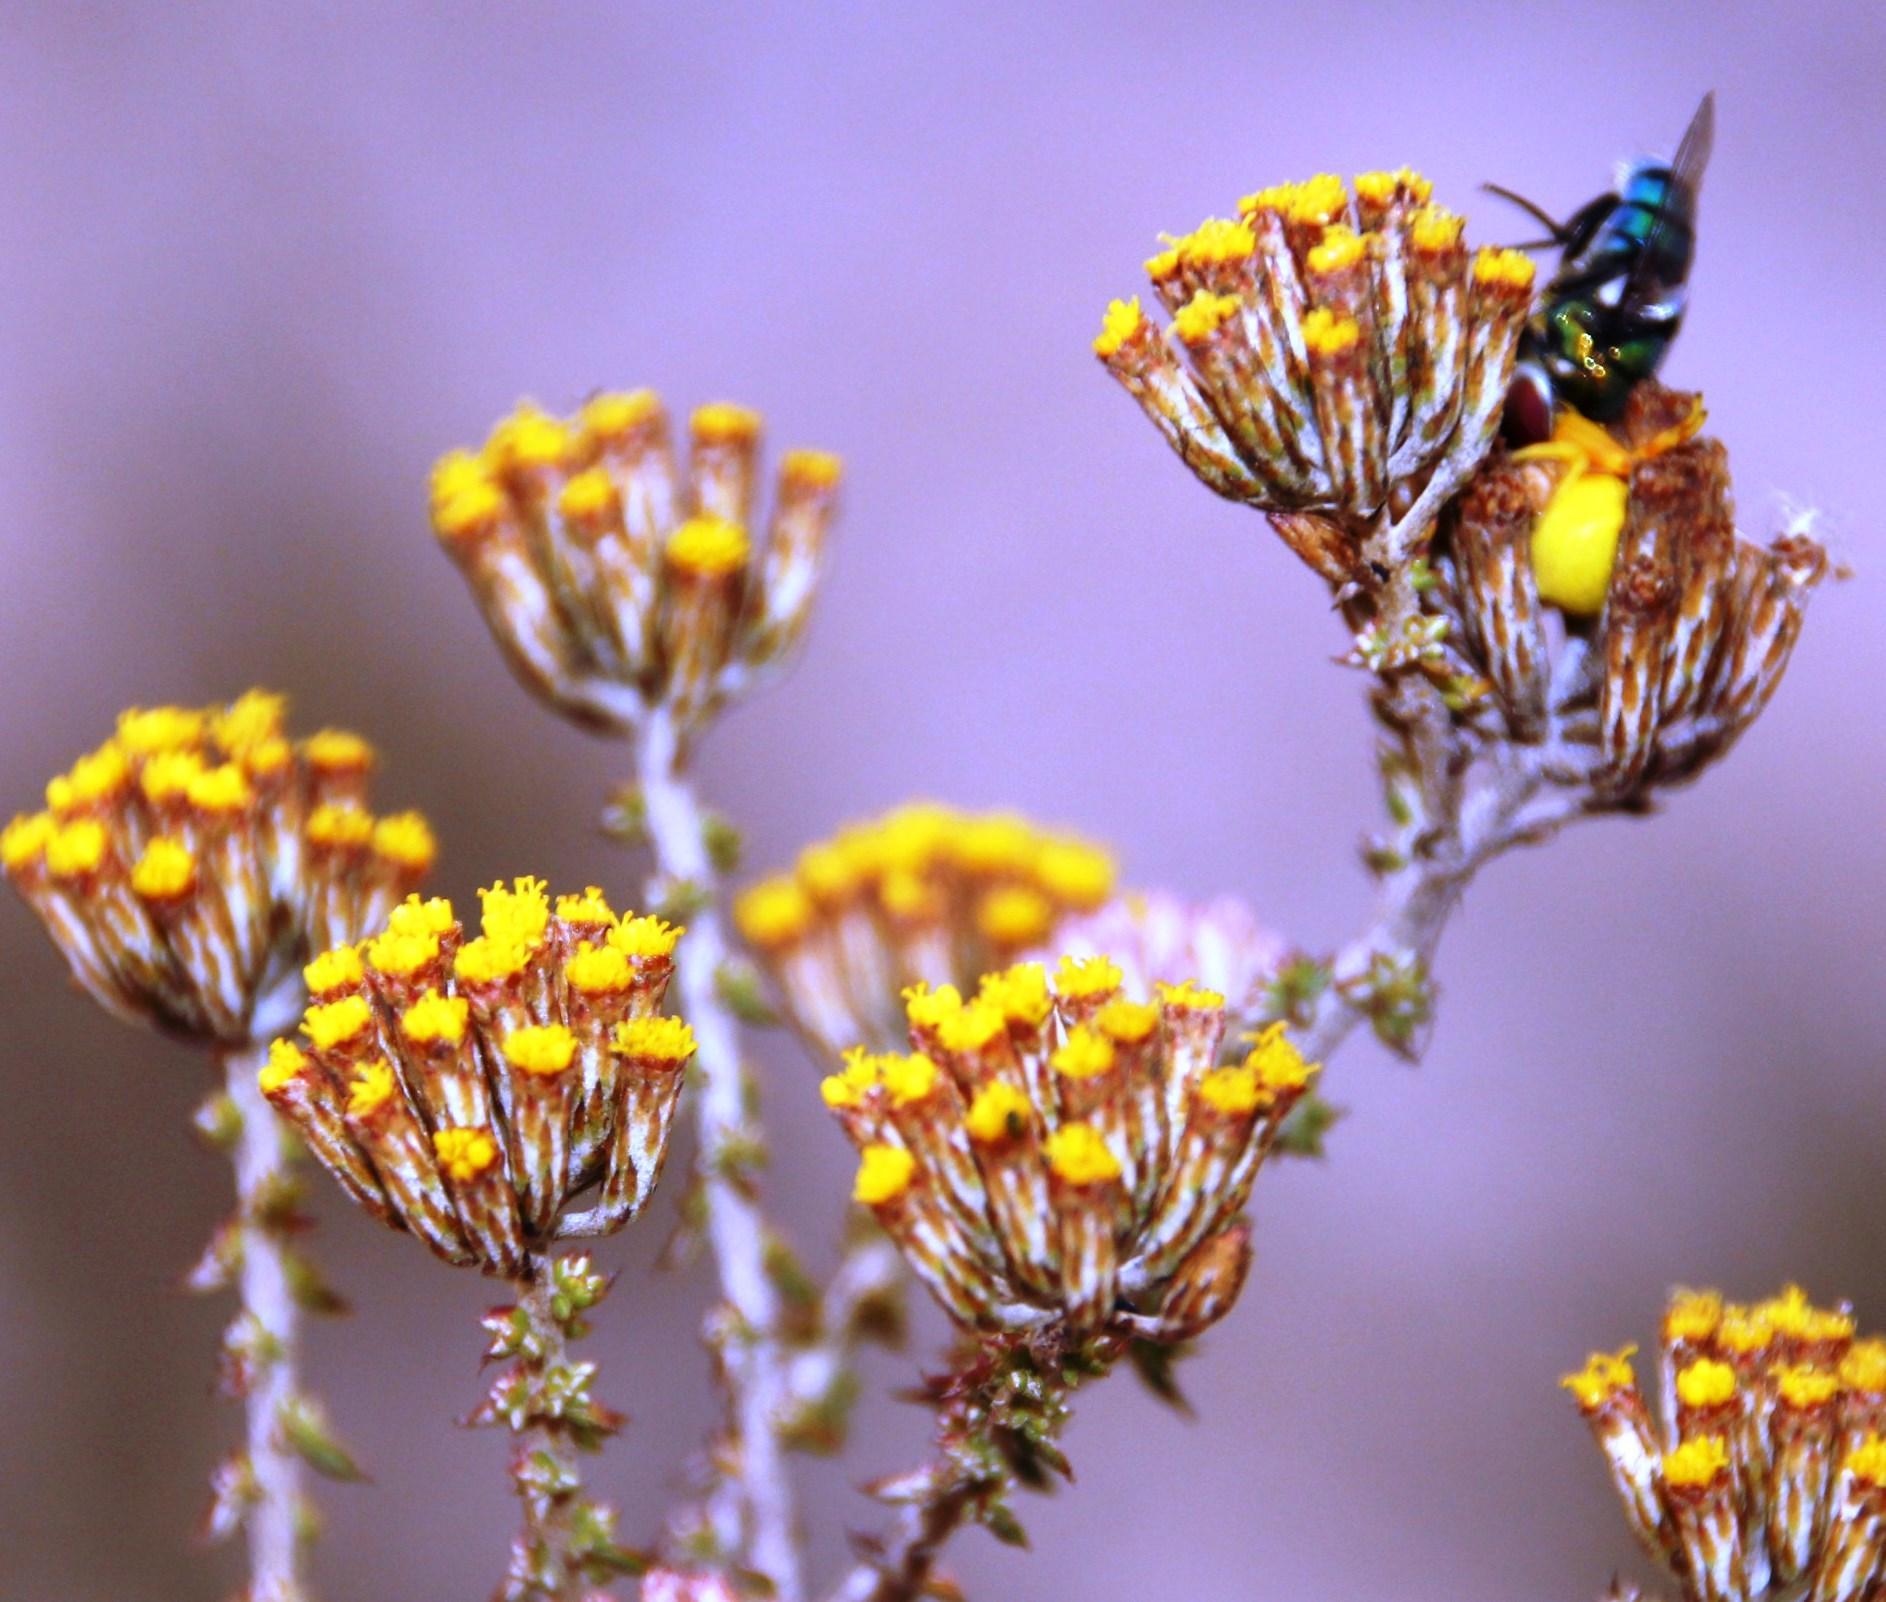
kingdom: Plantae
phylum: Tracheophyta
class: Magnoliopsida
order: Asterales
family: Asteraceae
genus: Metalasia
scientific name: Metalasia octoflora
